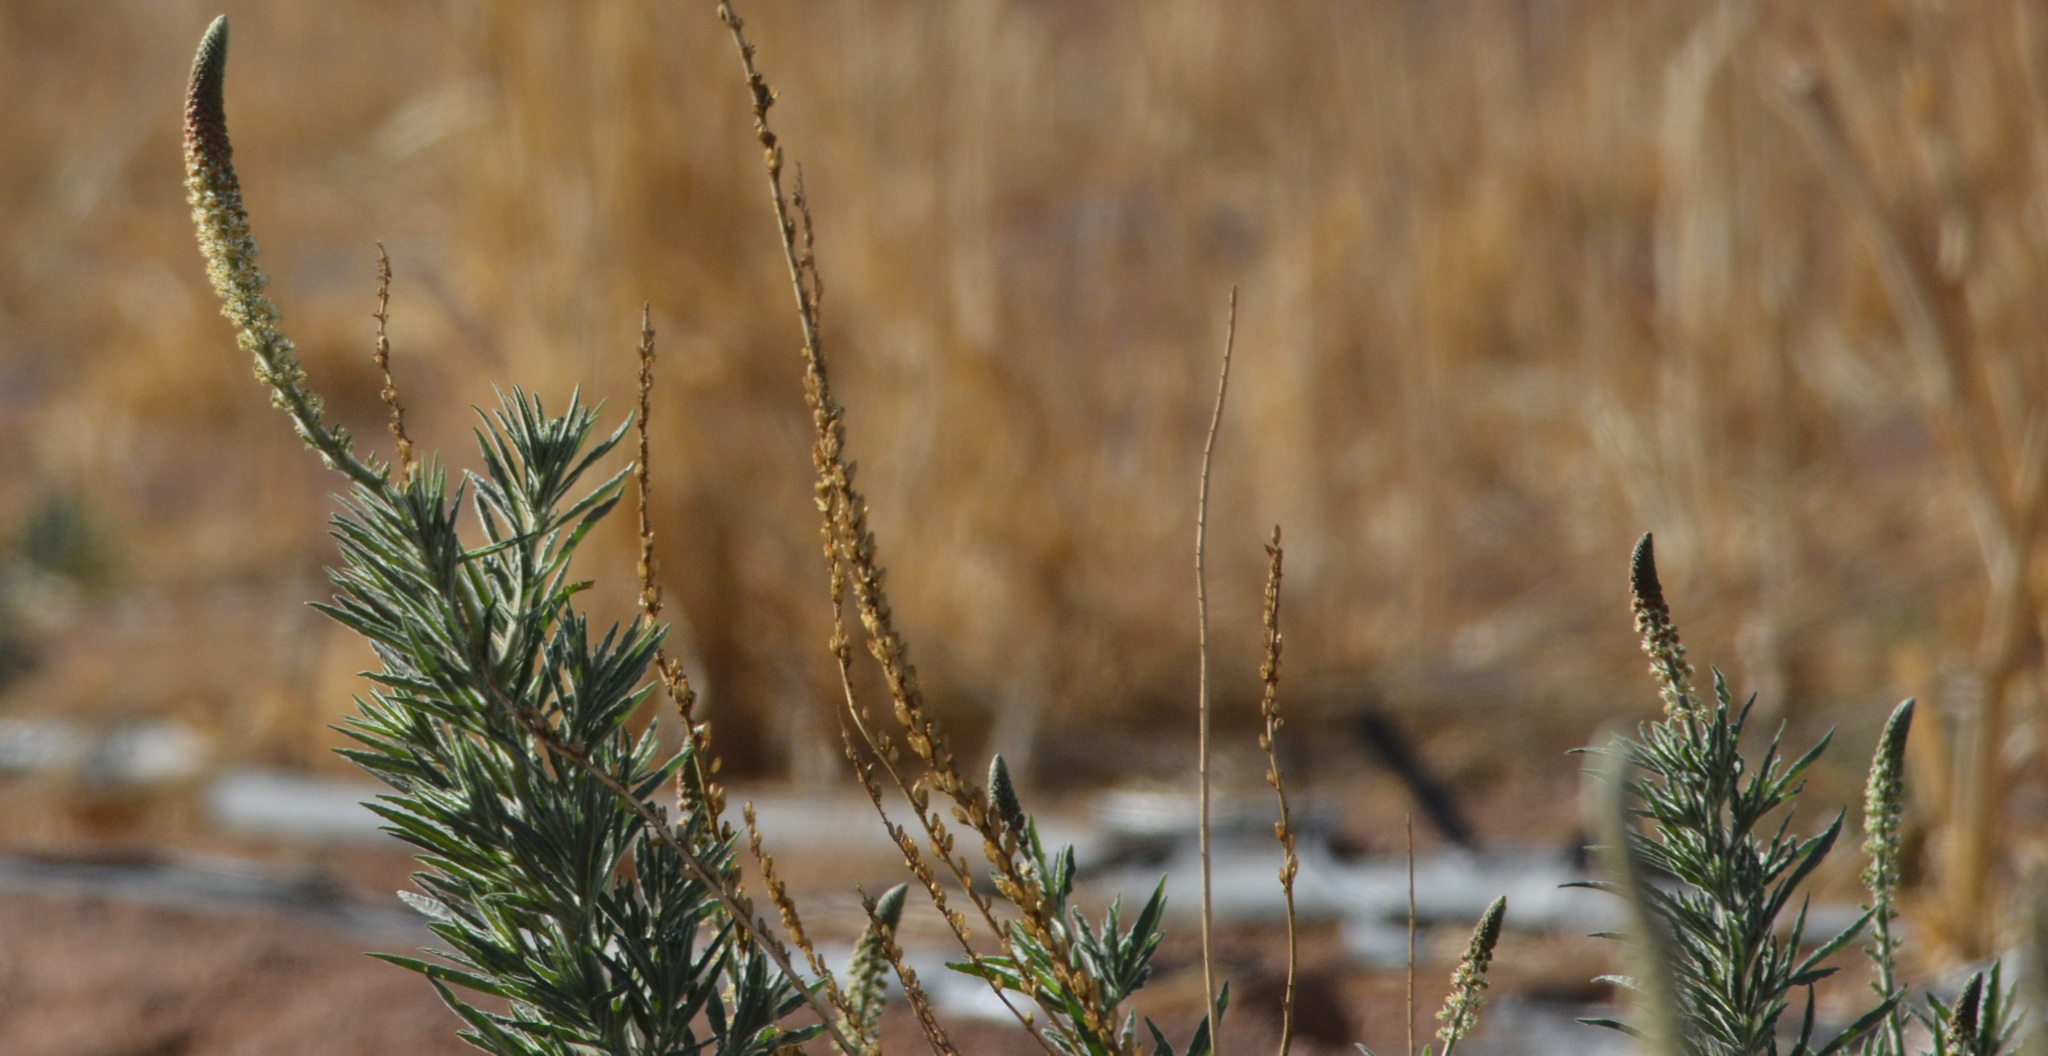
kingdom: Plantae
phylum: Tracheophyta
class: Magnoliopsida
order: Brassicales
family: Resedaceae
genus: Reseda
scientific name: Reseda villosa
